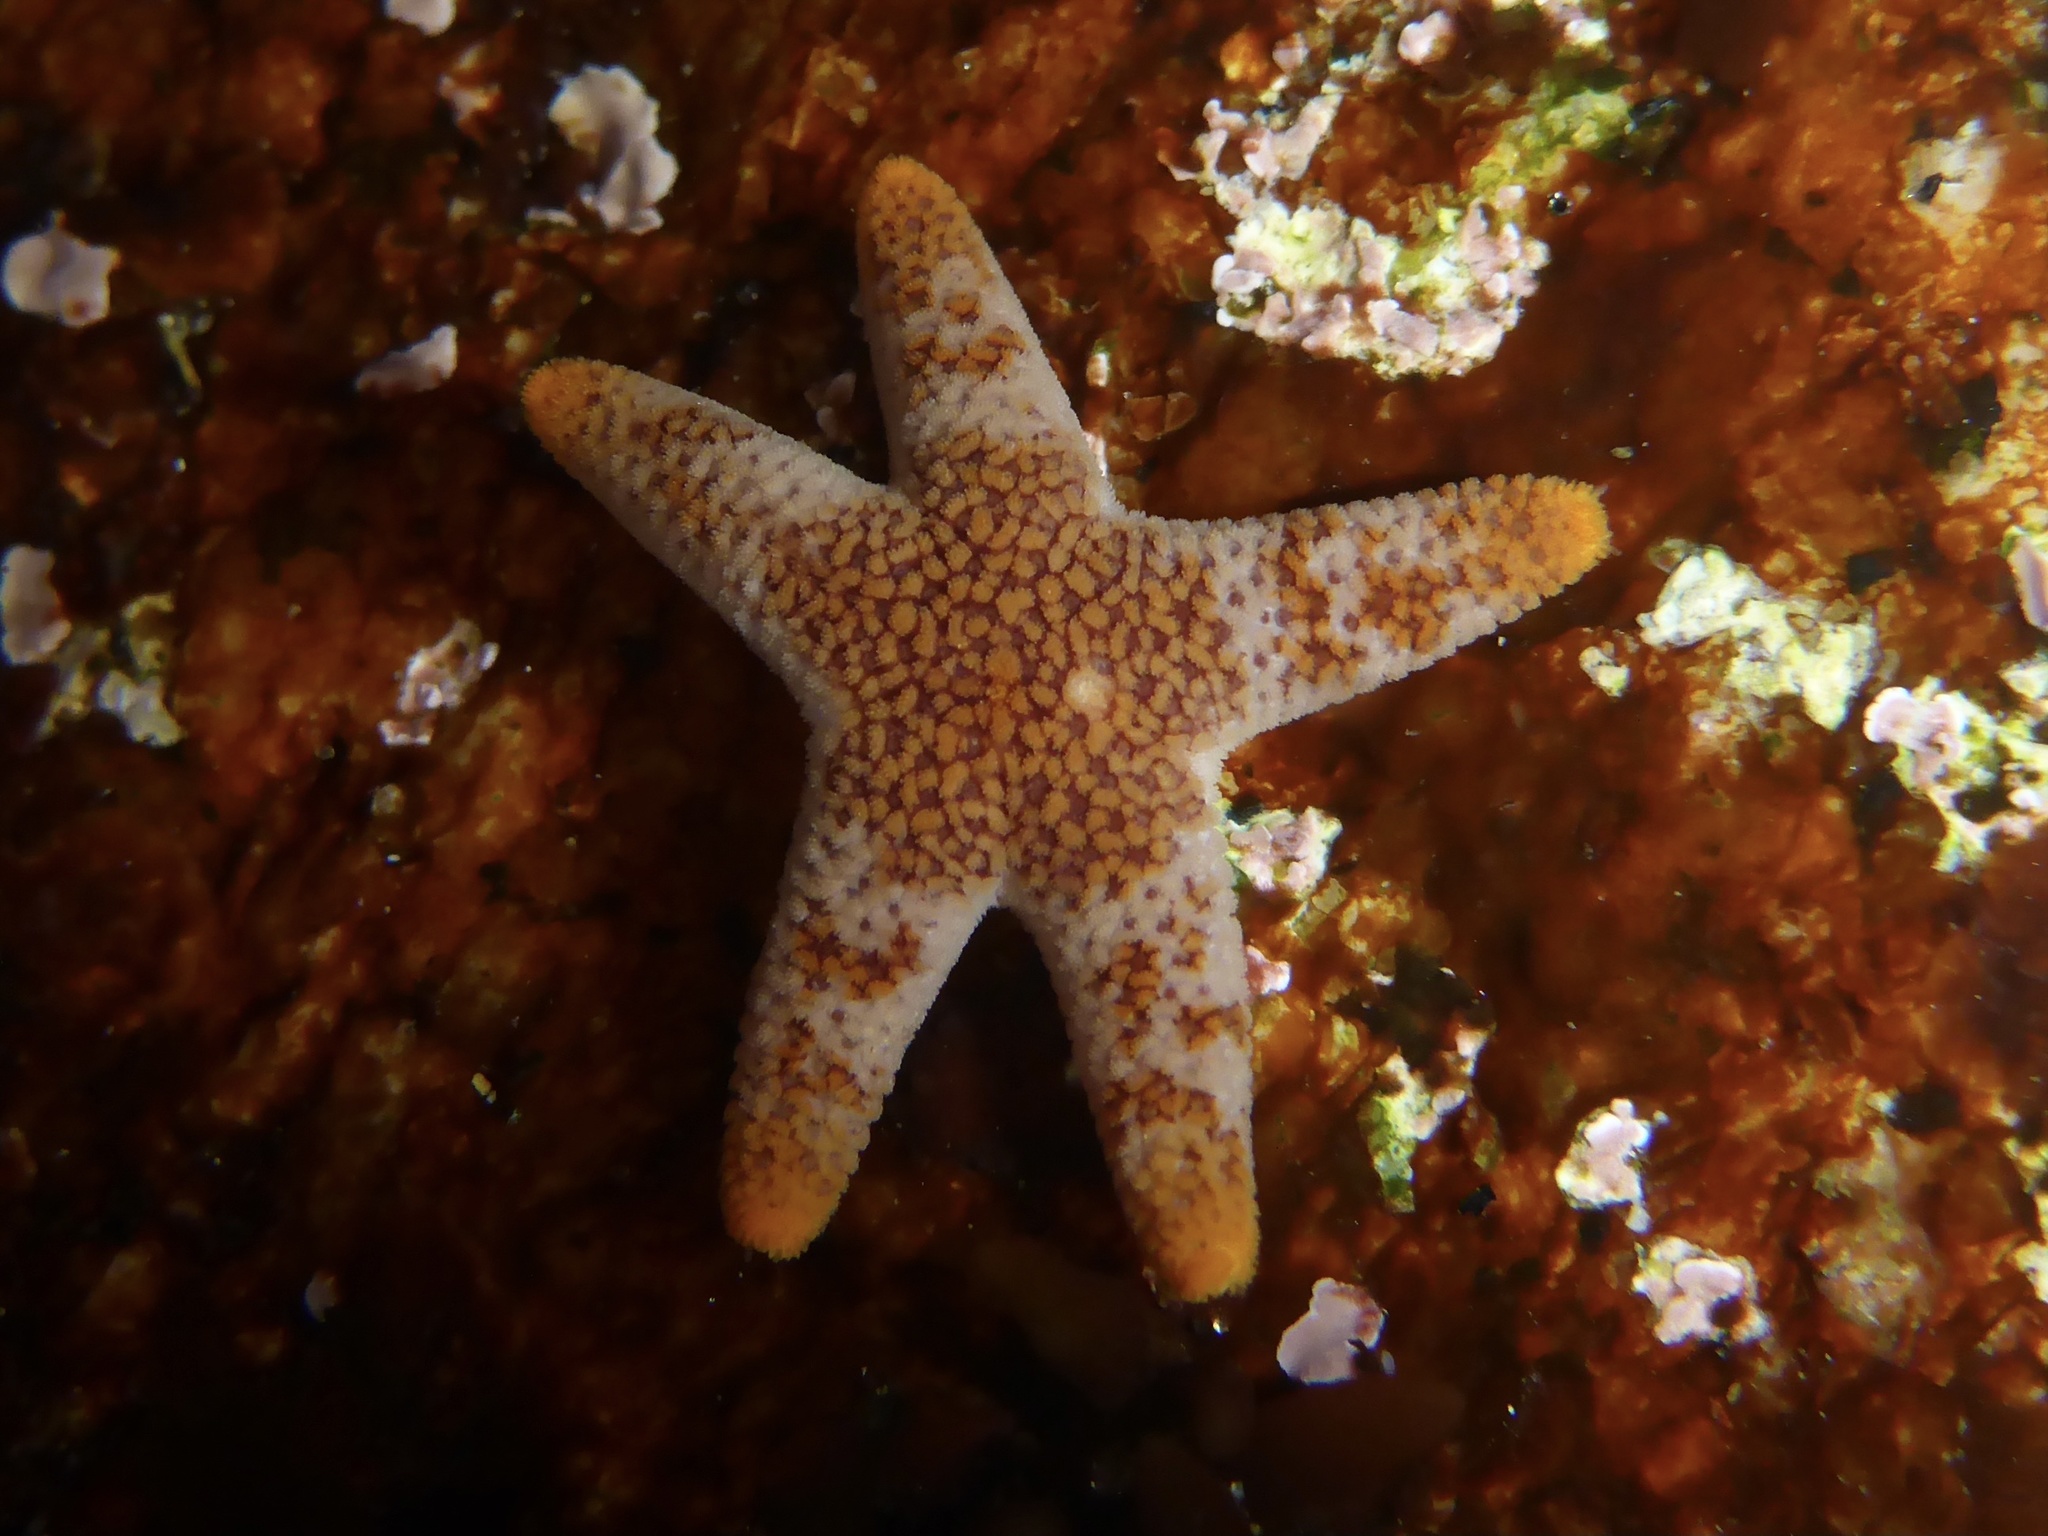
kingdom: Animalia
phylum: Echinodermata
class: Asteroidea
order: Spinulosida
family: Echinasteridae
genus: Henricia
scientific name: Henricia pumila
